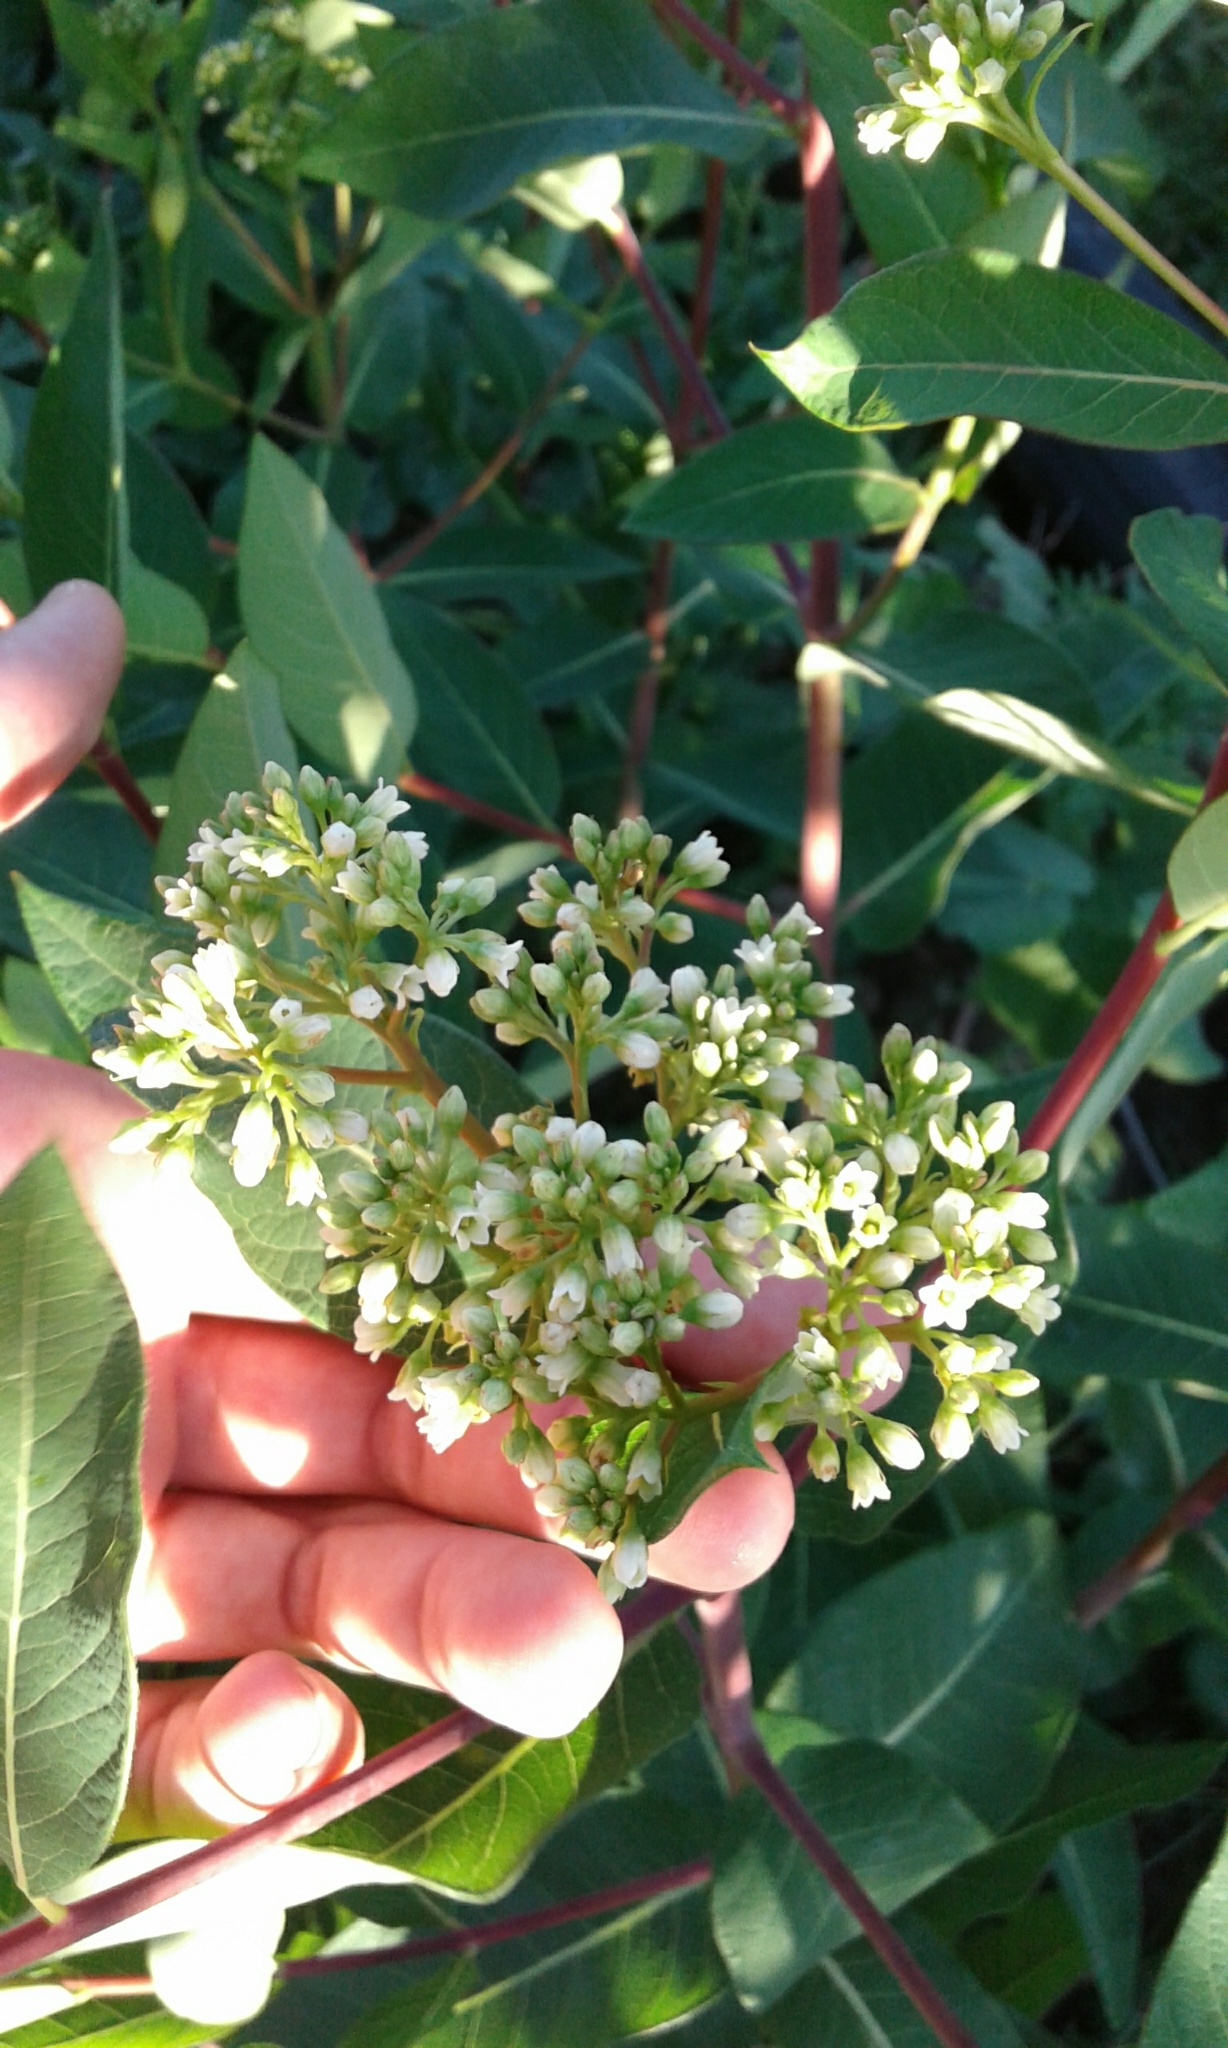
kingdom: Plantae
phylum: Tracheophyta
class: Magnoliopsida
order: Gentianales
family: Apocynaceae
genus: Apocynum
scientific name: Apocynum cannabinum
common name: Hemp dogbane
